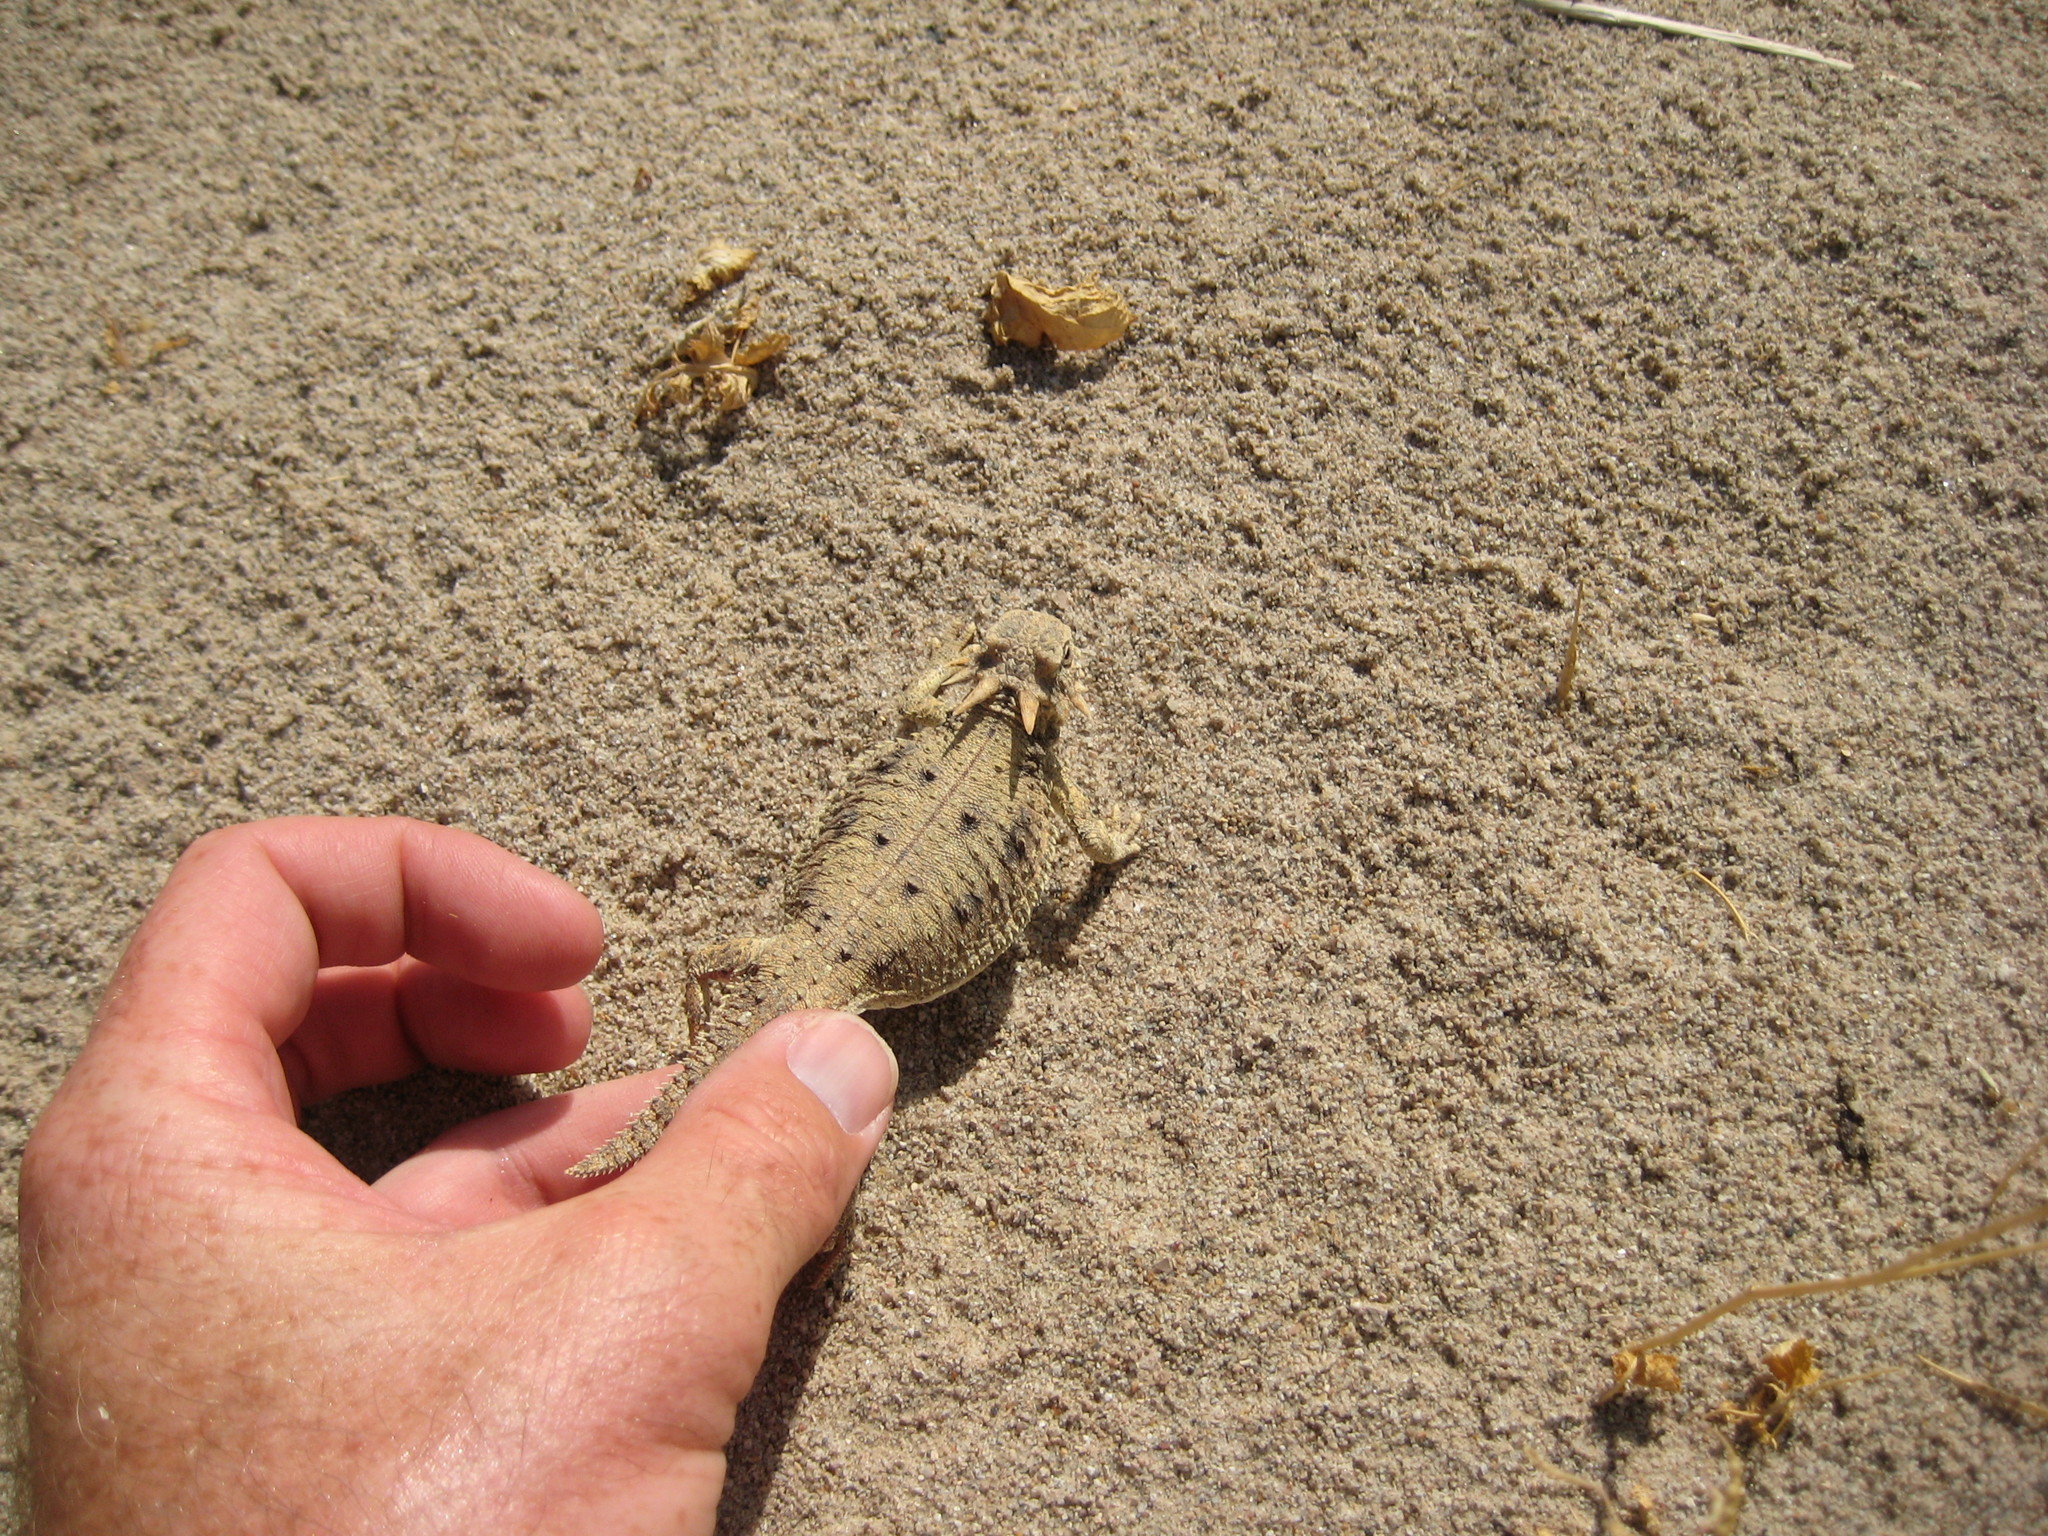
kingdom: Animalia
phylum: Chordata
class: Squamata
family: Phrynosomatidae
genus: Phrynosoma
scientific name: Phrynosoma mcallii
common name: Flat-tailed horned lizard
